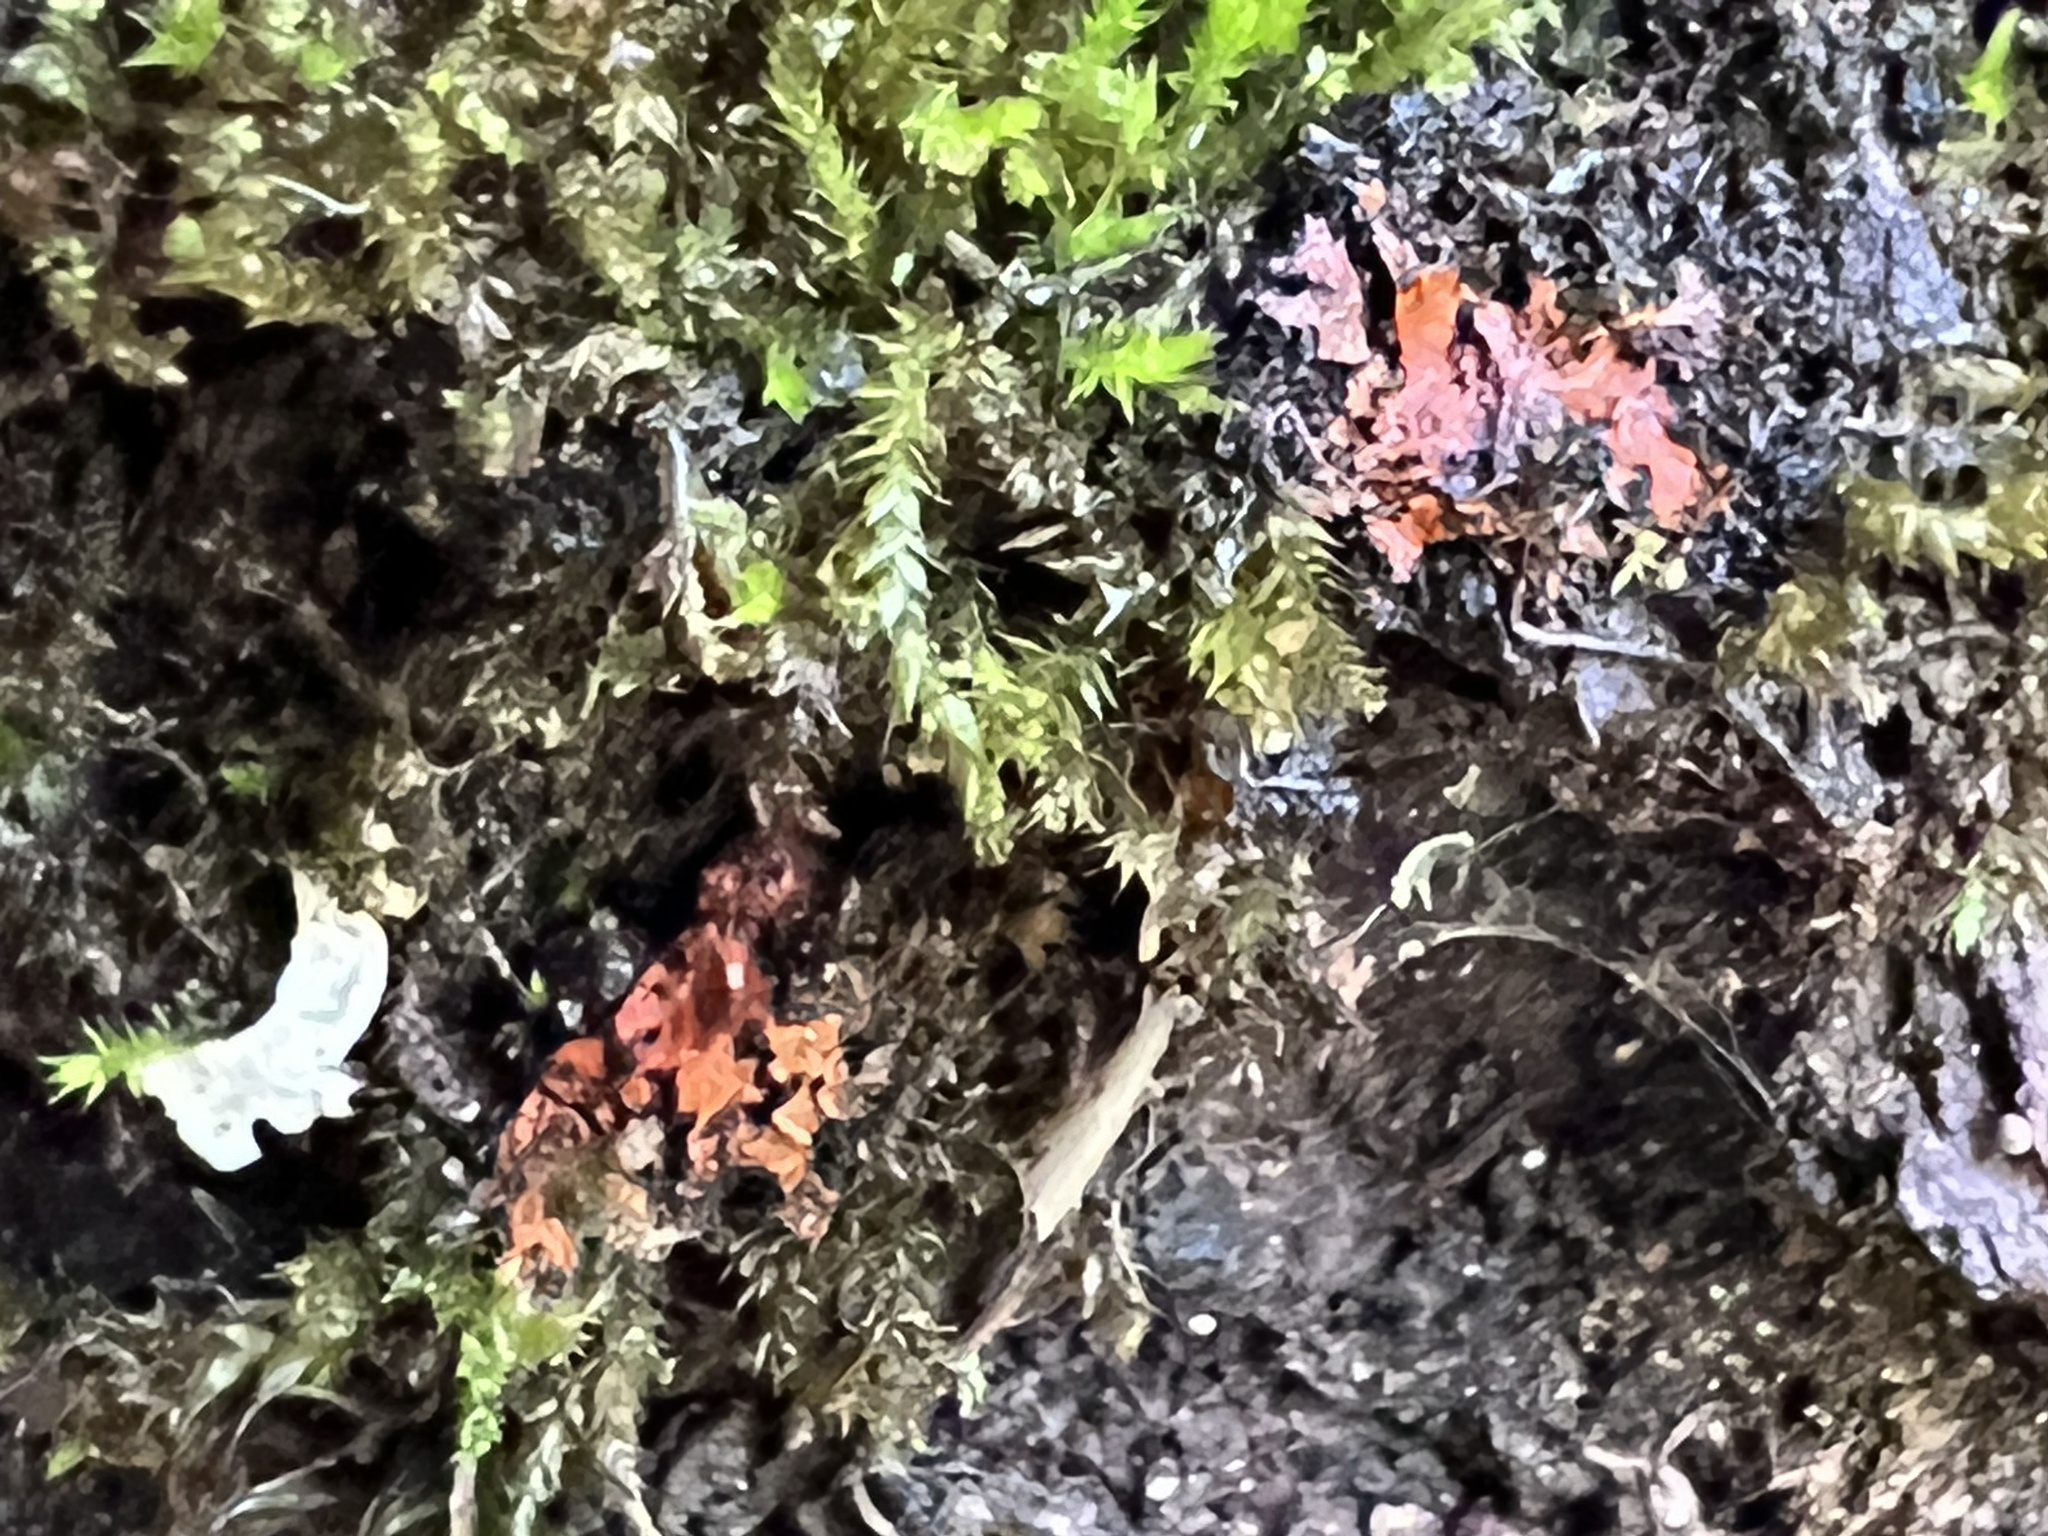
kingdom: Fungi
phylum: Ascomycota
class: Lecanoromycetes
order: Caliciales
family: Physciaceae
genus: Phaeophyscia
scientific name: Phaeophyscia rubropulchra
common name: Orange-cored shadow lichen
